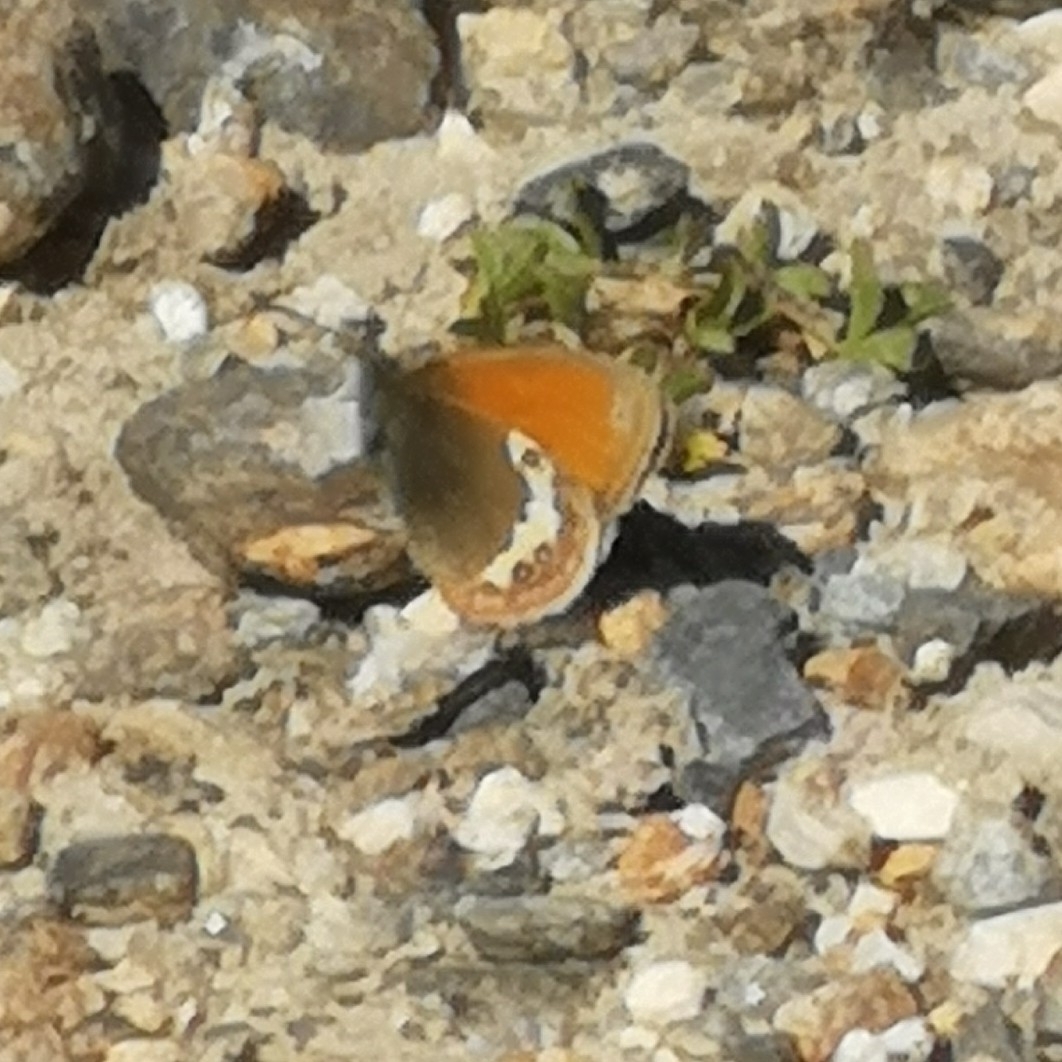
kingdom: Animalia
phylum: Arthropoda
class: Insecta
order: Lepidoptera
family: Nymphalidae
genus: Coenonympha
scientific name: Coenonympha
